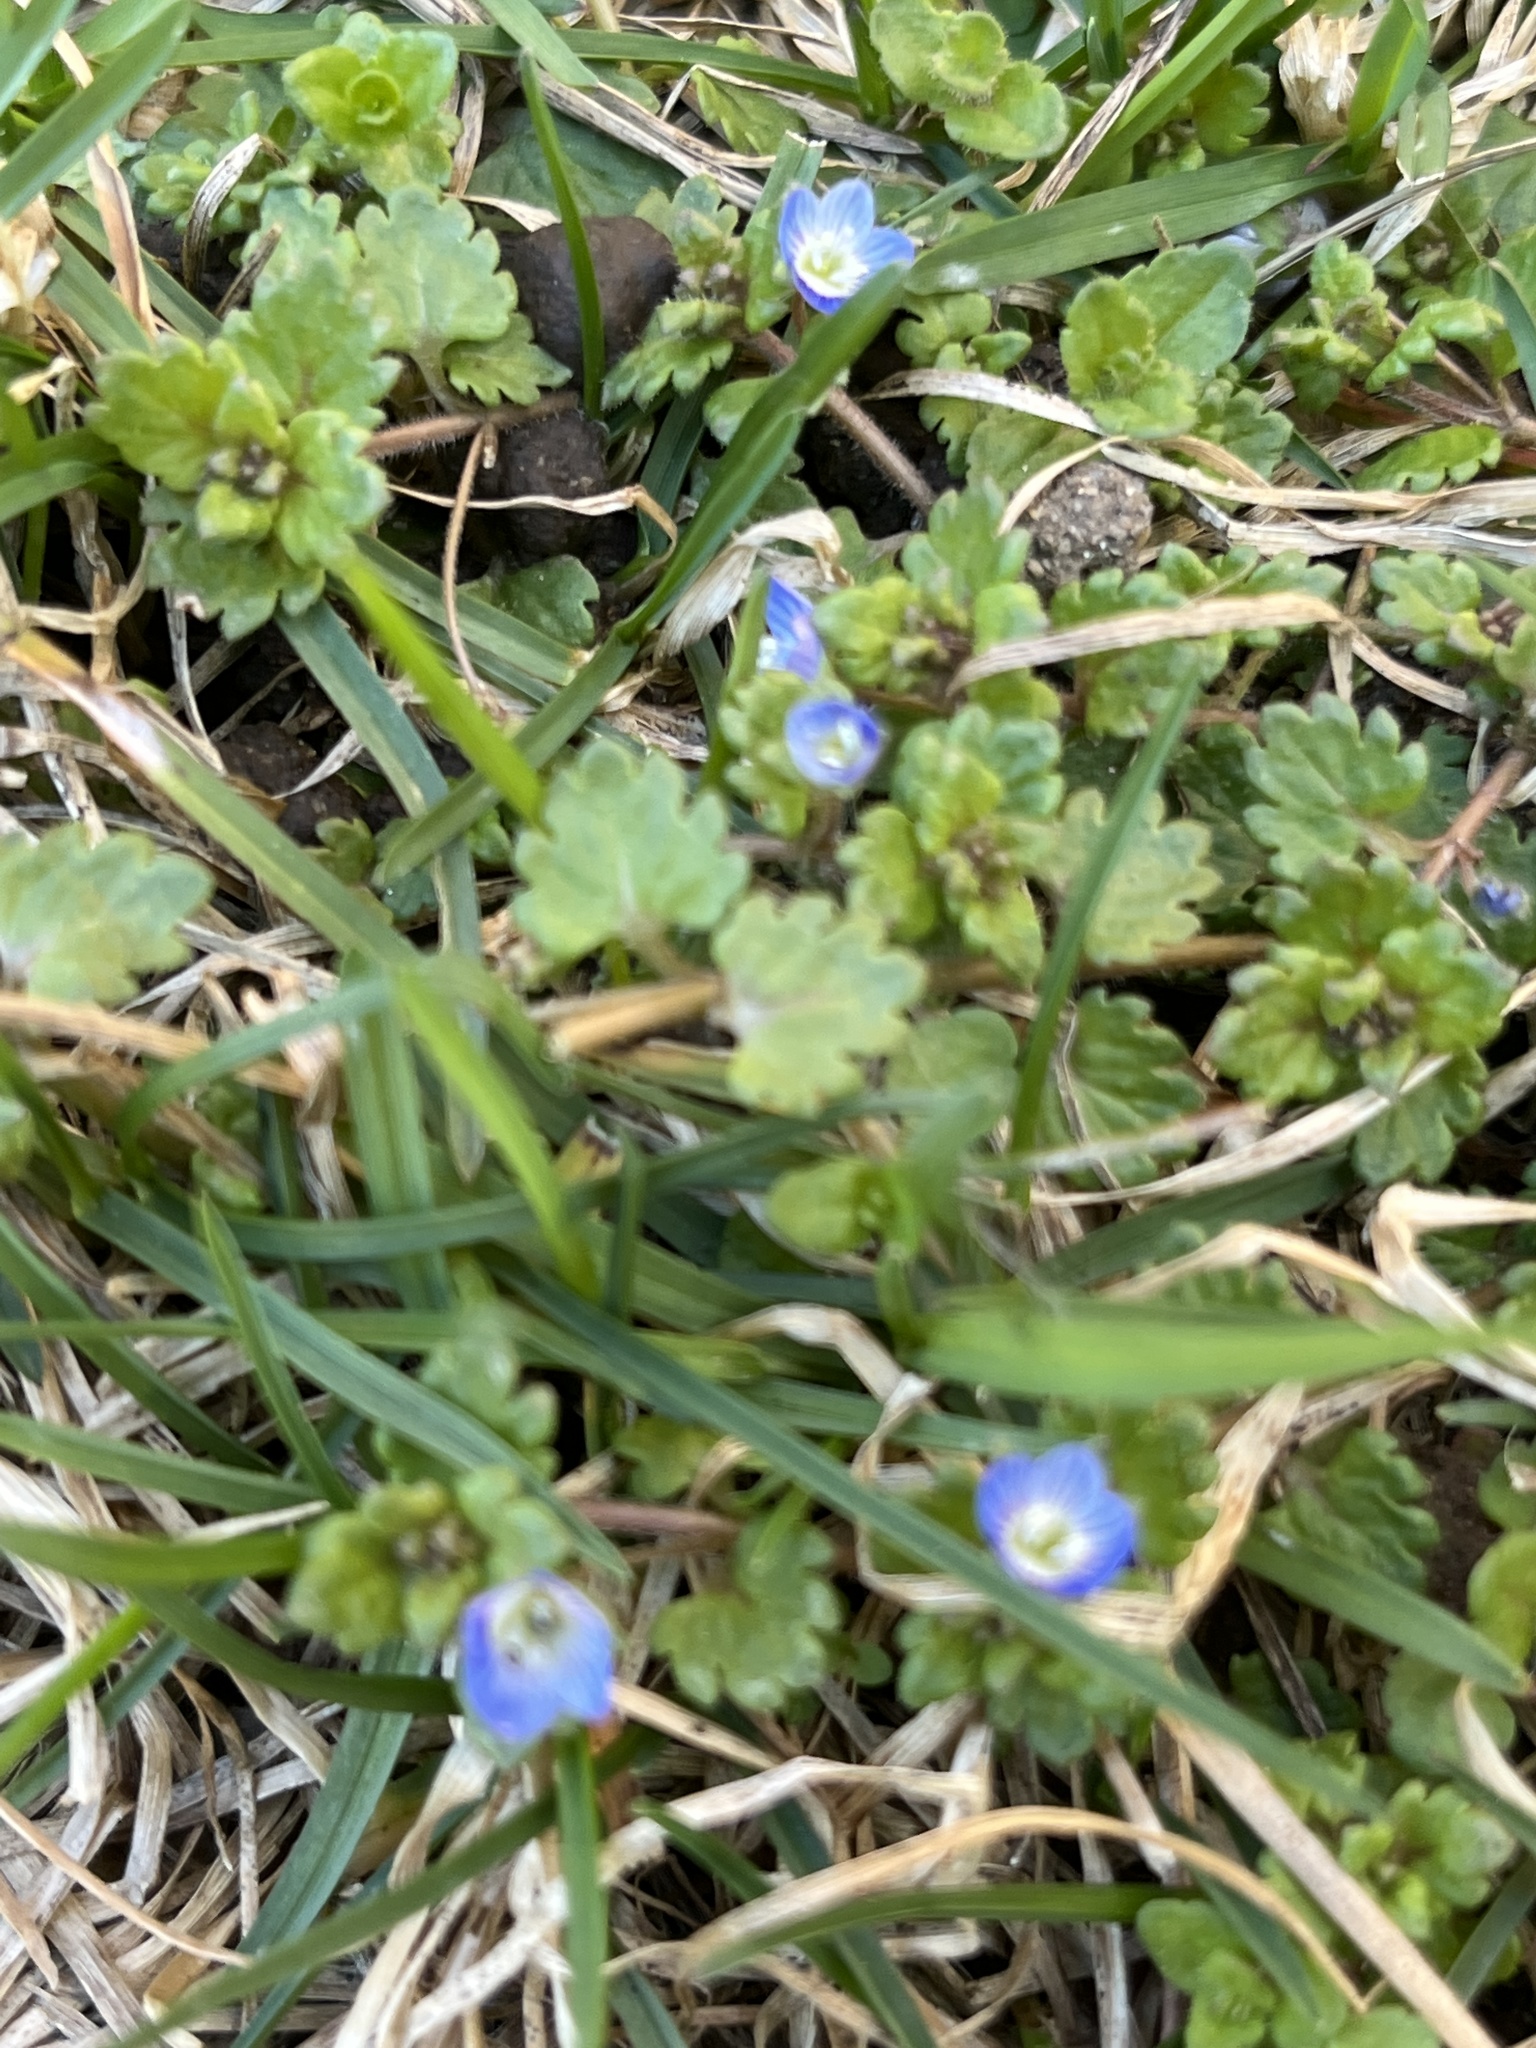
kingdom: Plantae
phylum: Tracheophyta
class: Magnoliopsida
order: Lamiales
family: Plantaginaceae
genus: Veronica
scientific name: Veronica polita
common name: Grey field-speedwell
